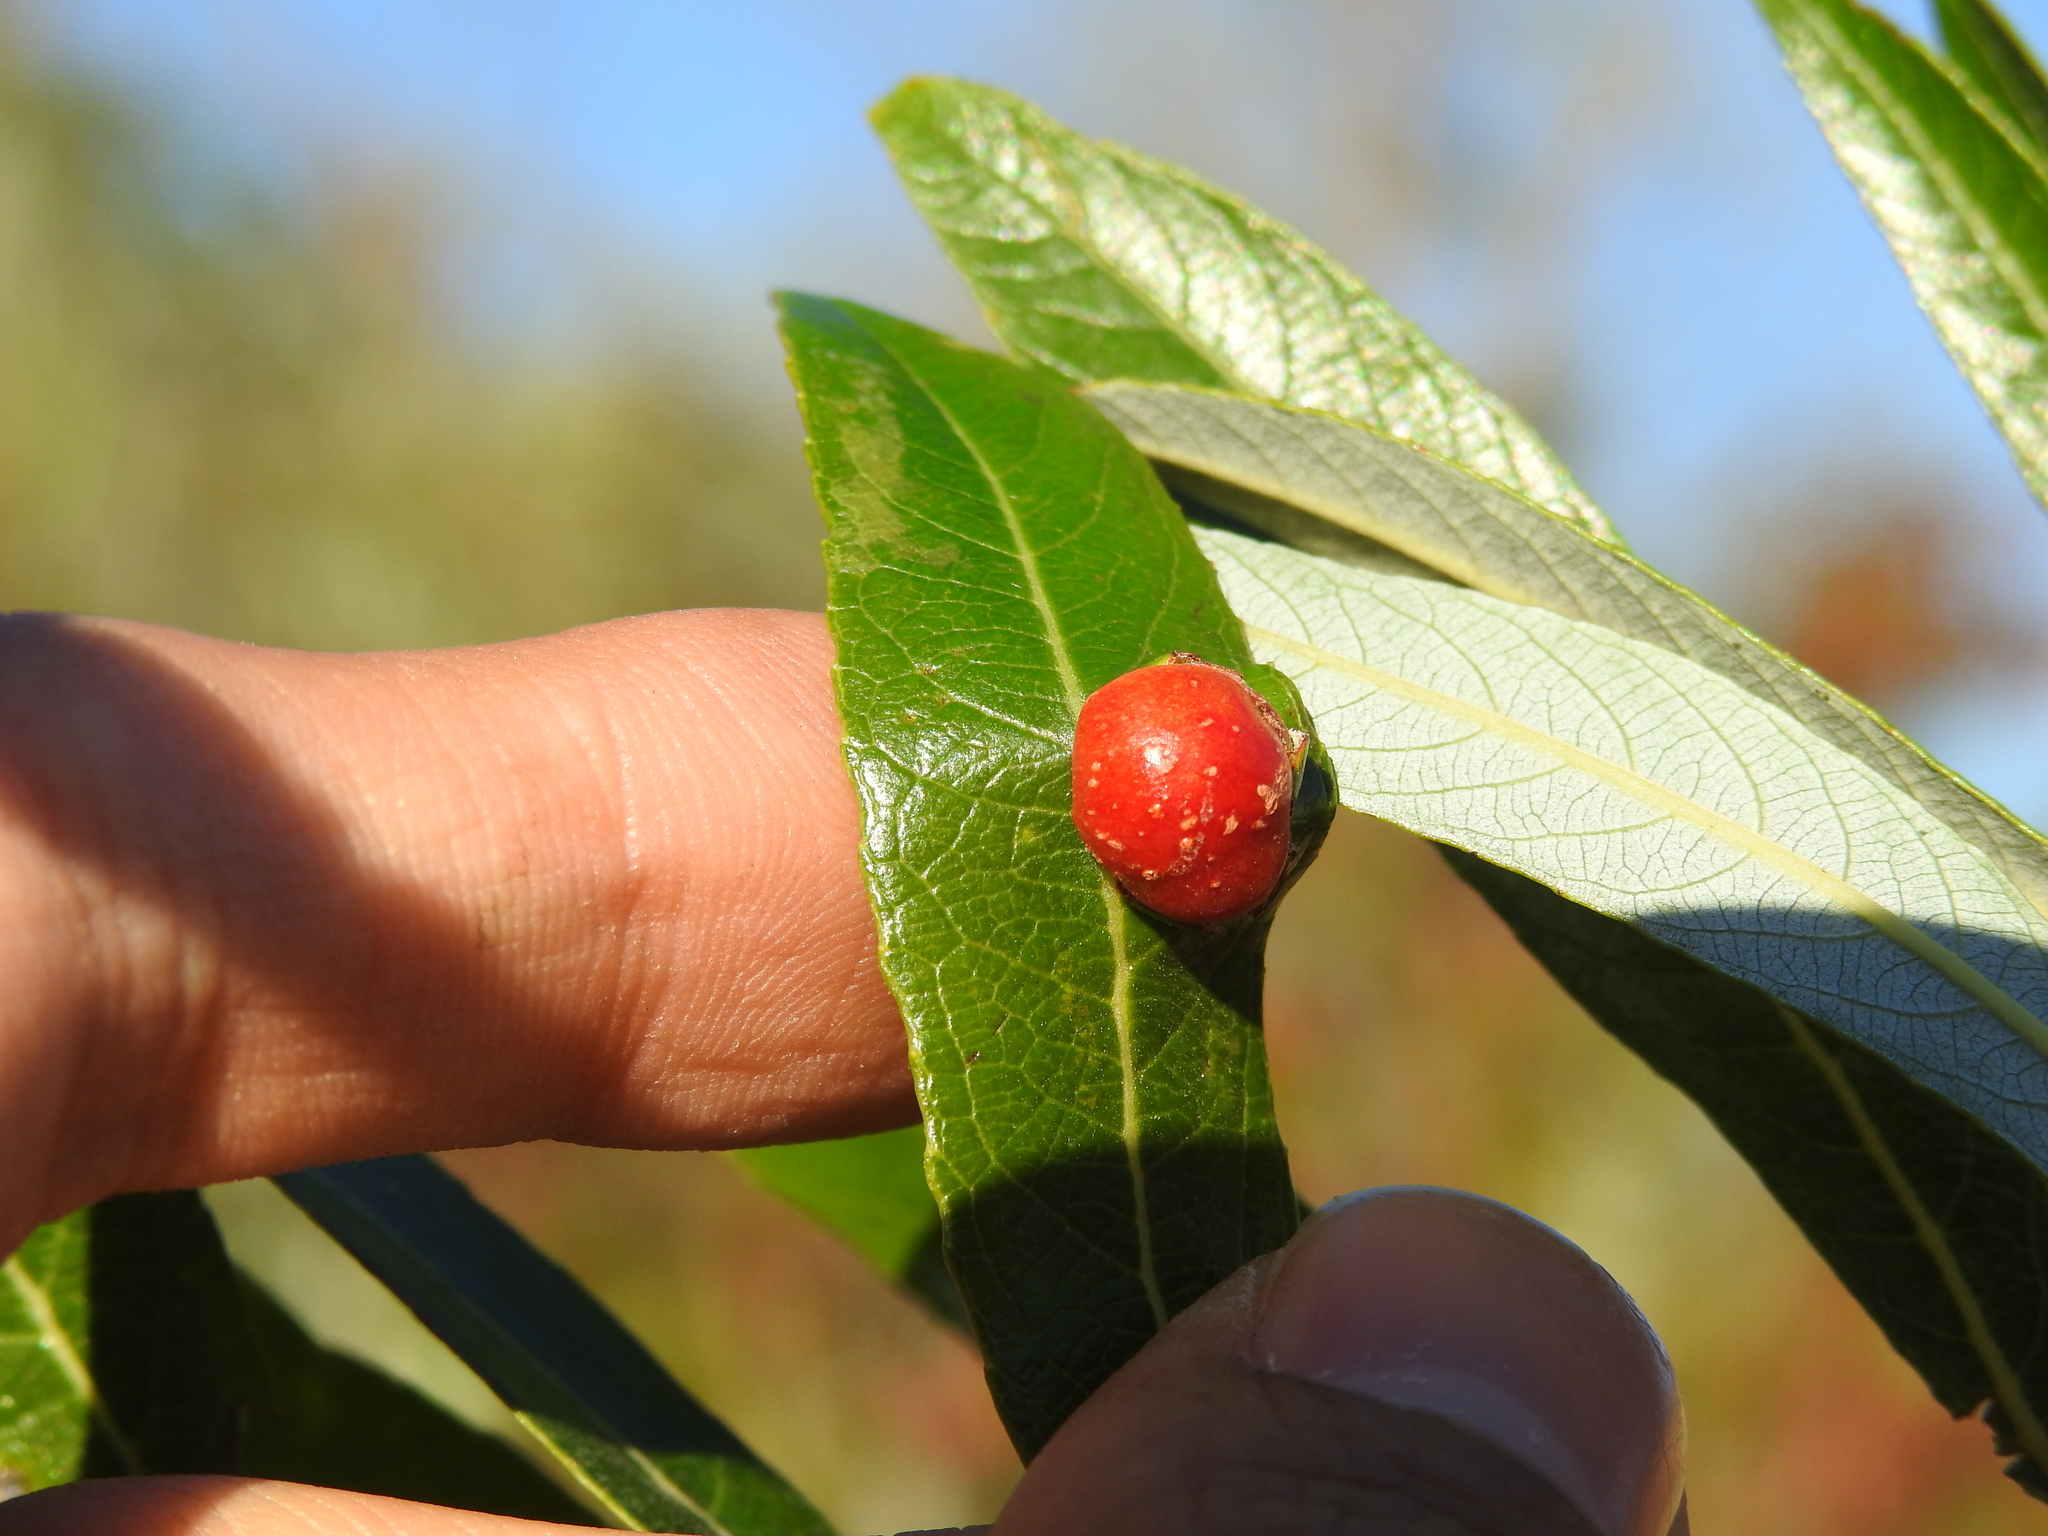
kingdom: Animalia
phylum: Arthropoda
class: Insecta
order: Hymenoptera
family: Tenthredinidae
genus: Euura
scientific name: Euura
